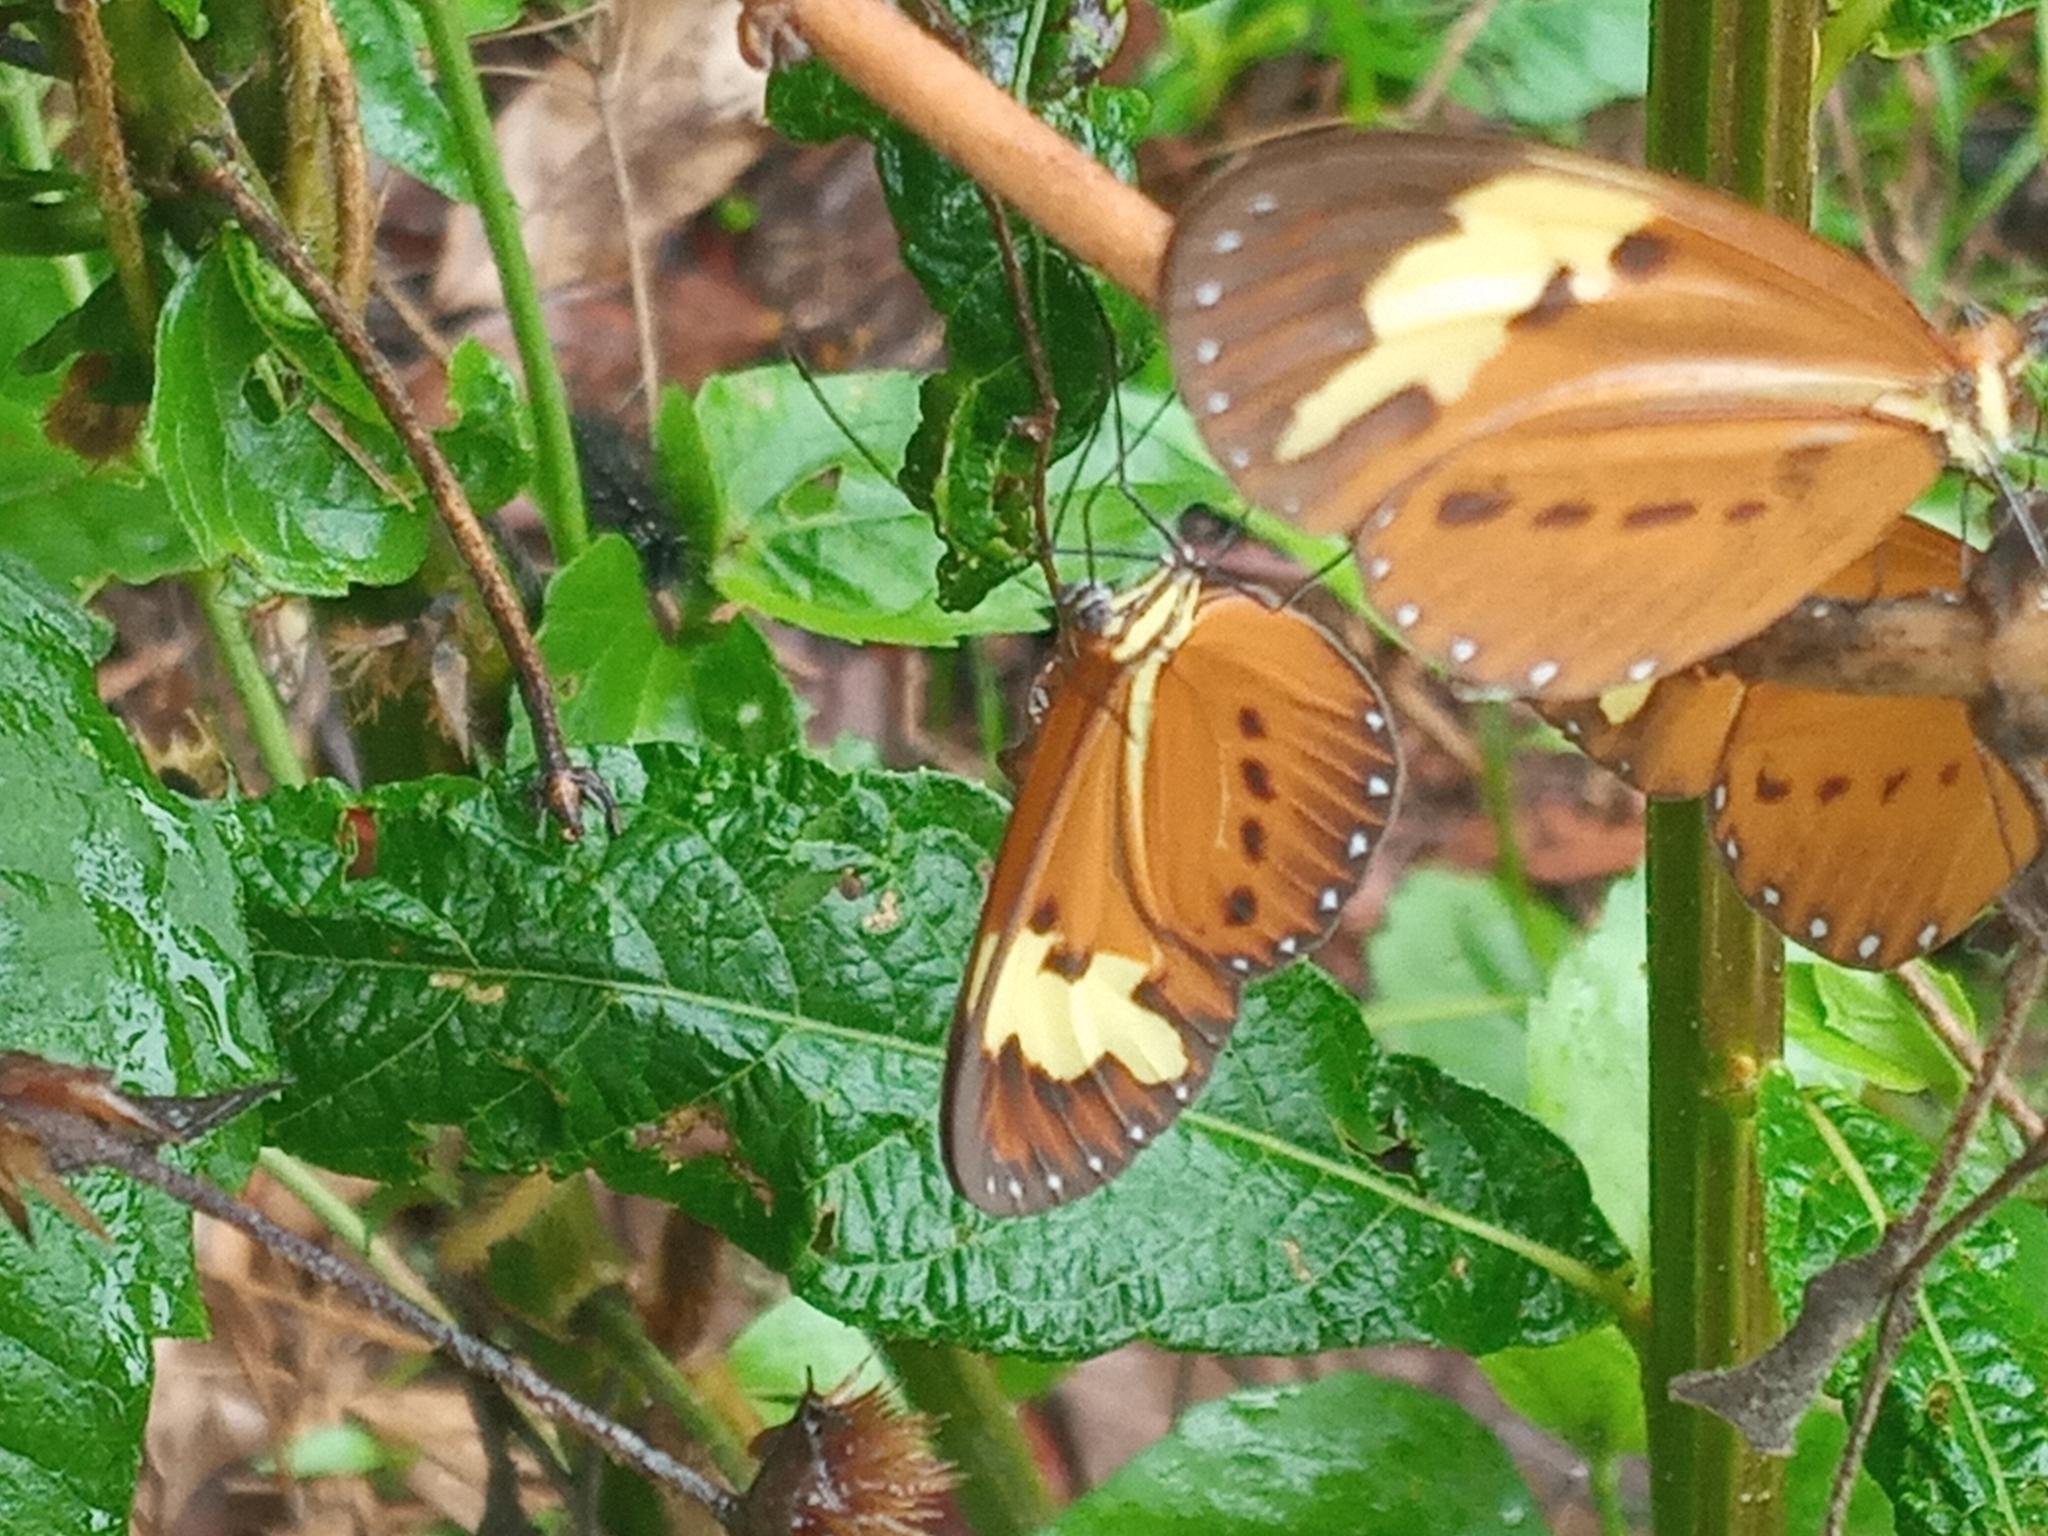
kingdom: Animalia
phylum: Arthropoda
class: Insecta
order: Lepidoptera
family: Nymphalidae
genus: Sais
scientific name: Sais rosalia
